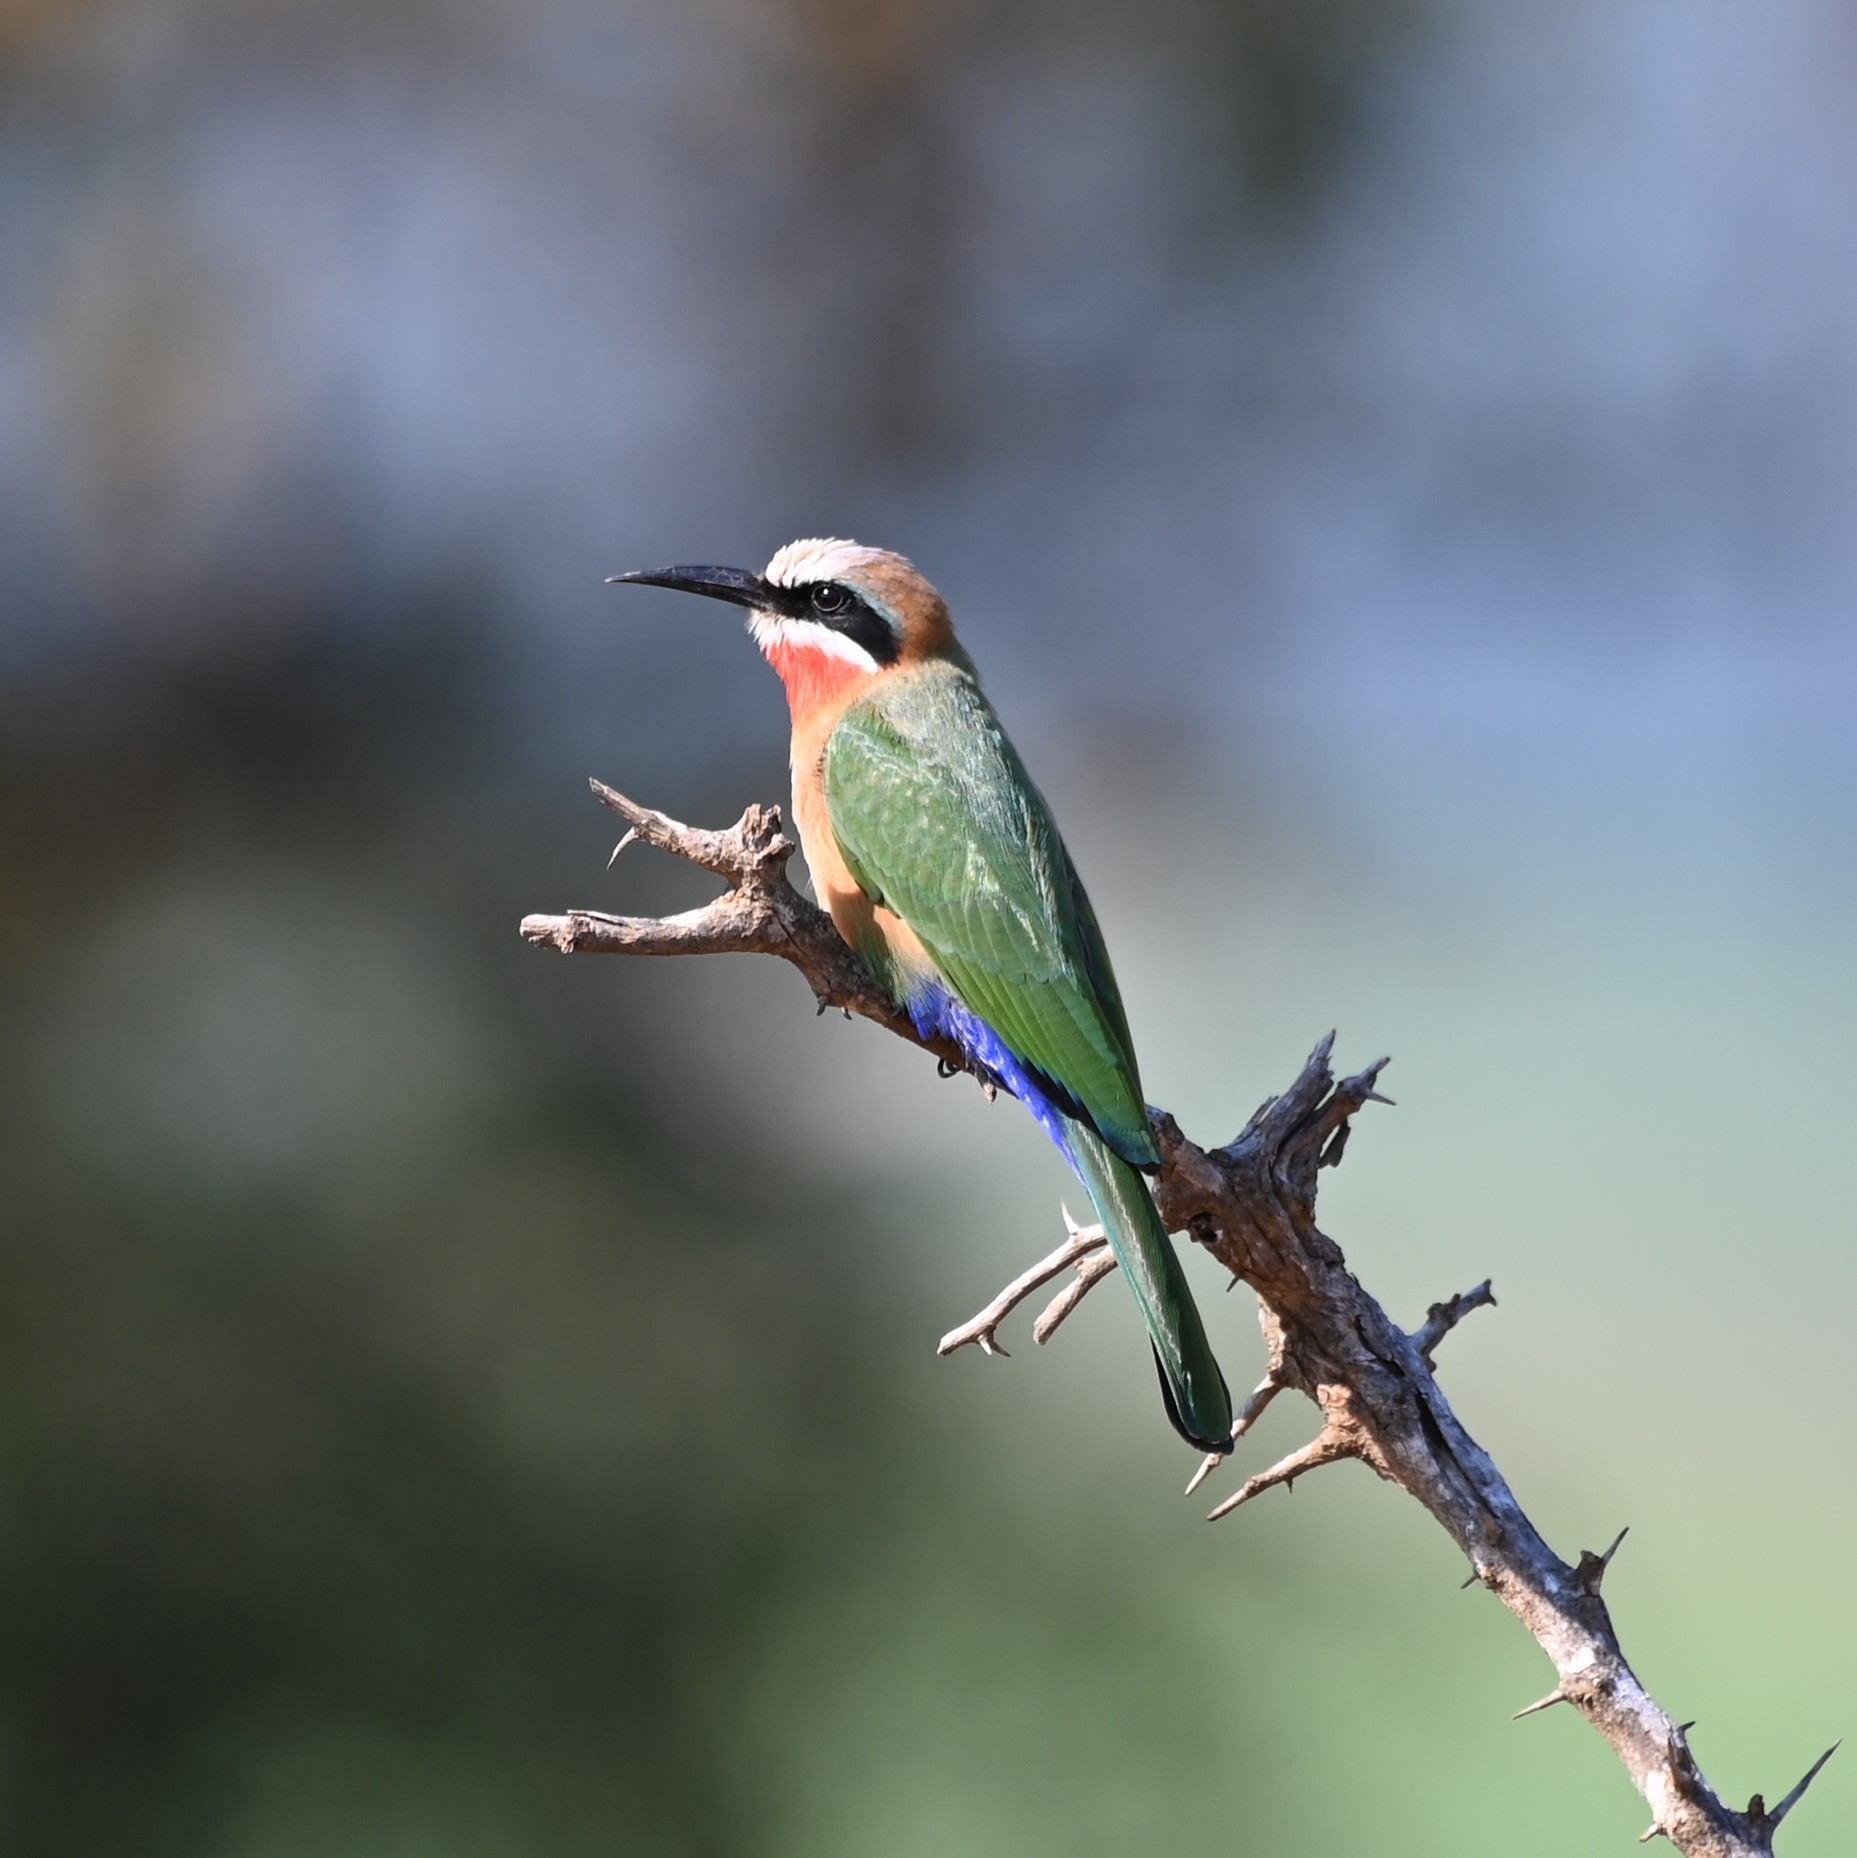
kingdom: Animalia
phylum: Chordata
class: Aves
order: Coraciiformes
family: Meropidae
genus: Merops
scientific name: Merops bullockoides
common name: White-fronted bee-eater
